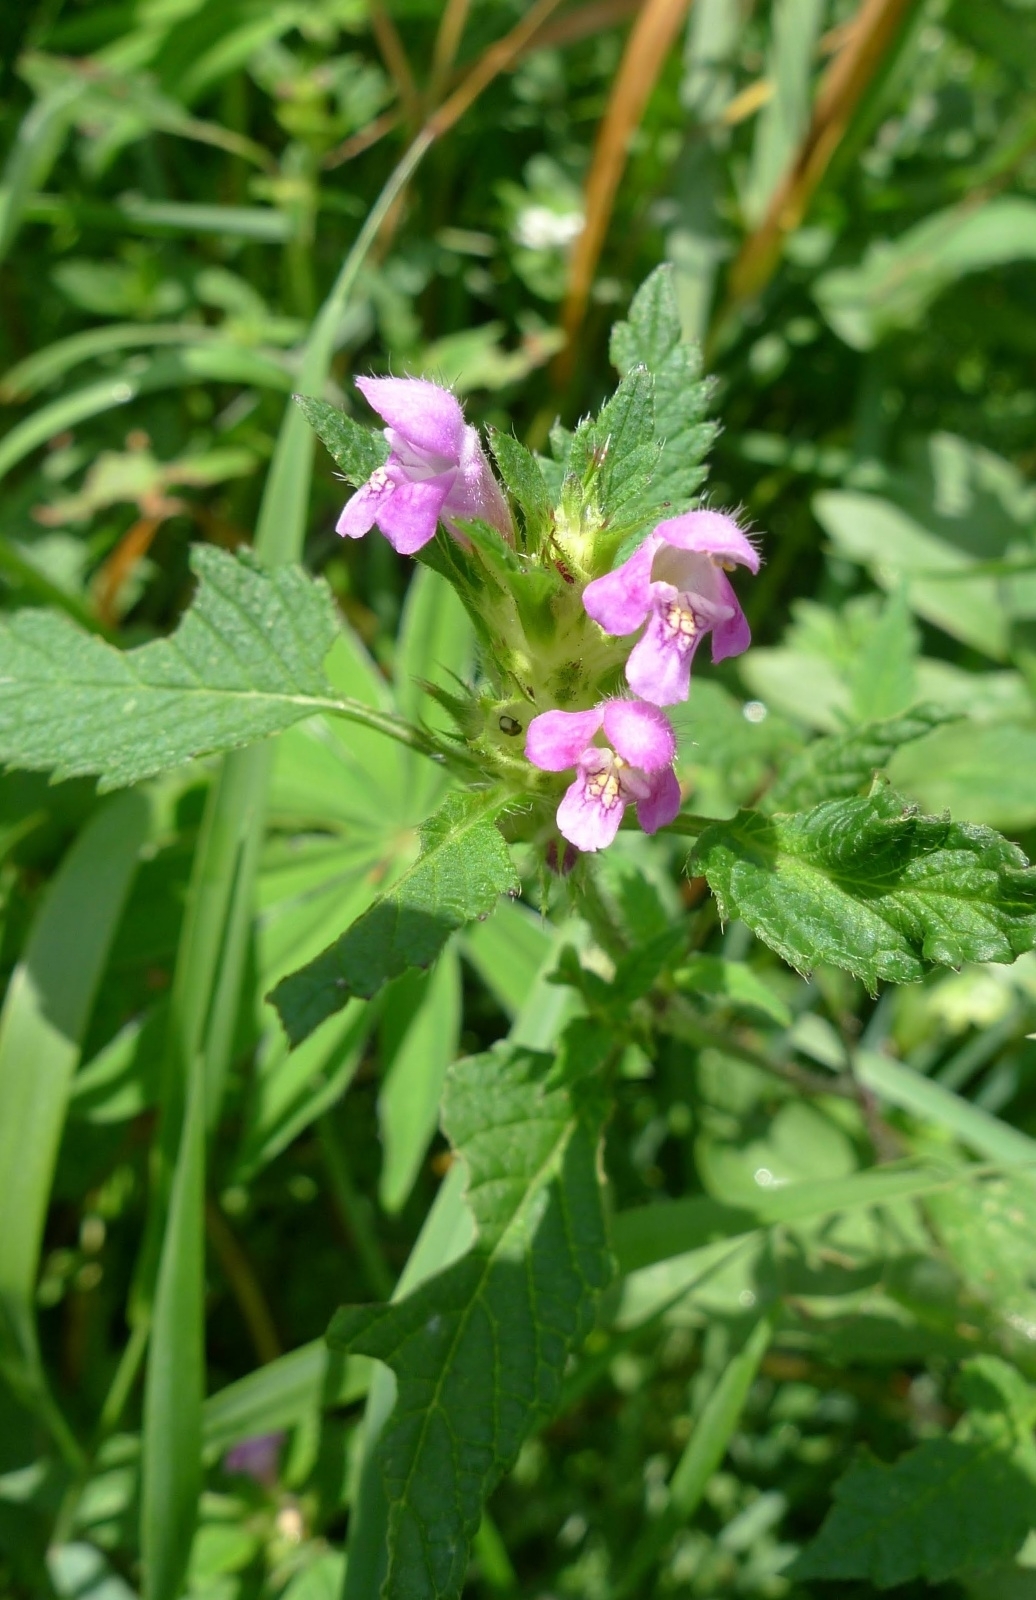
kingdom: Plantae
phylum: Tracheophyta
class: Magnoliopsida
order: Lamiales
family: Lamiaceae
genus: Galeopsis
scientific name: Galeopsis pubescens
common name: Downy hemp-nettle
